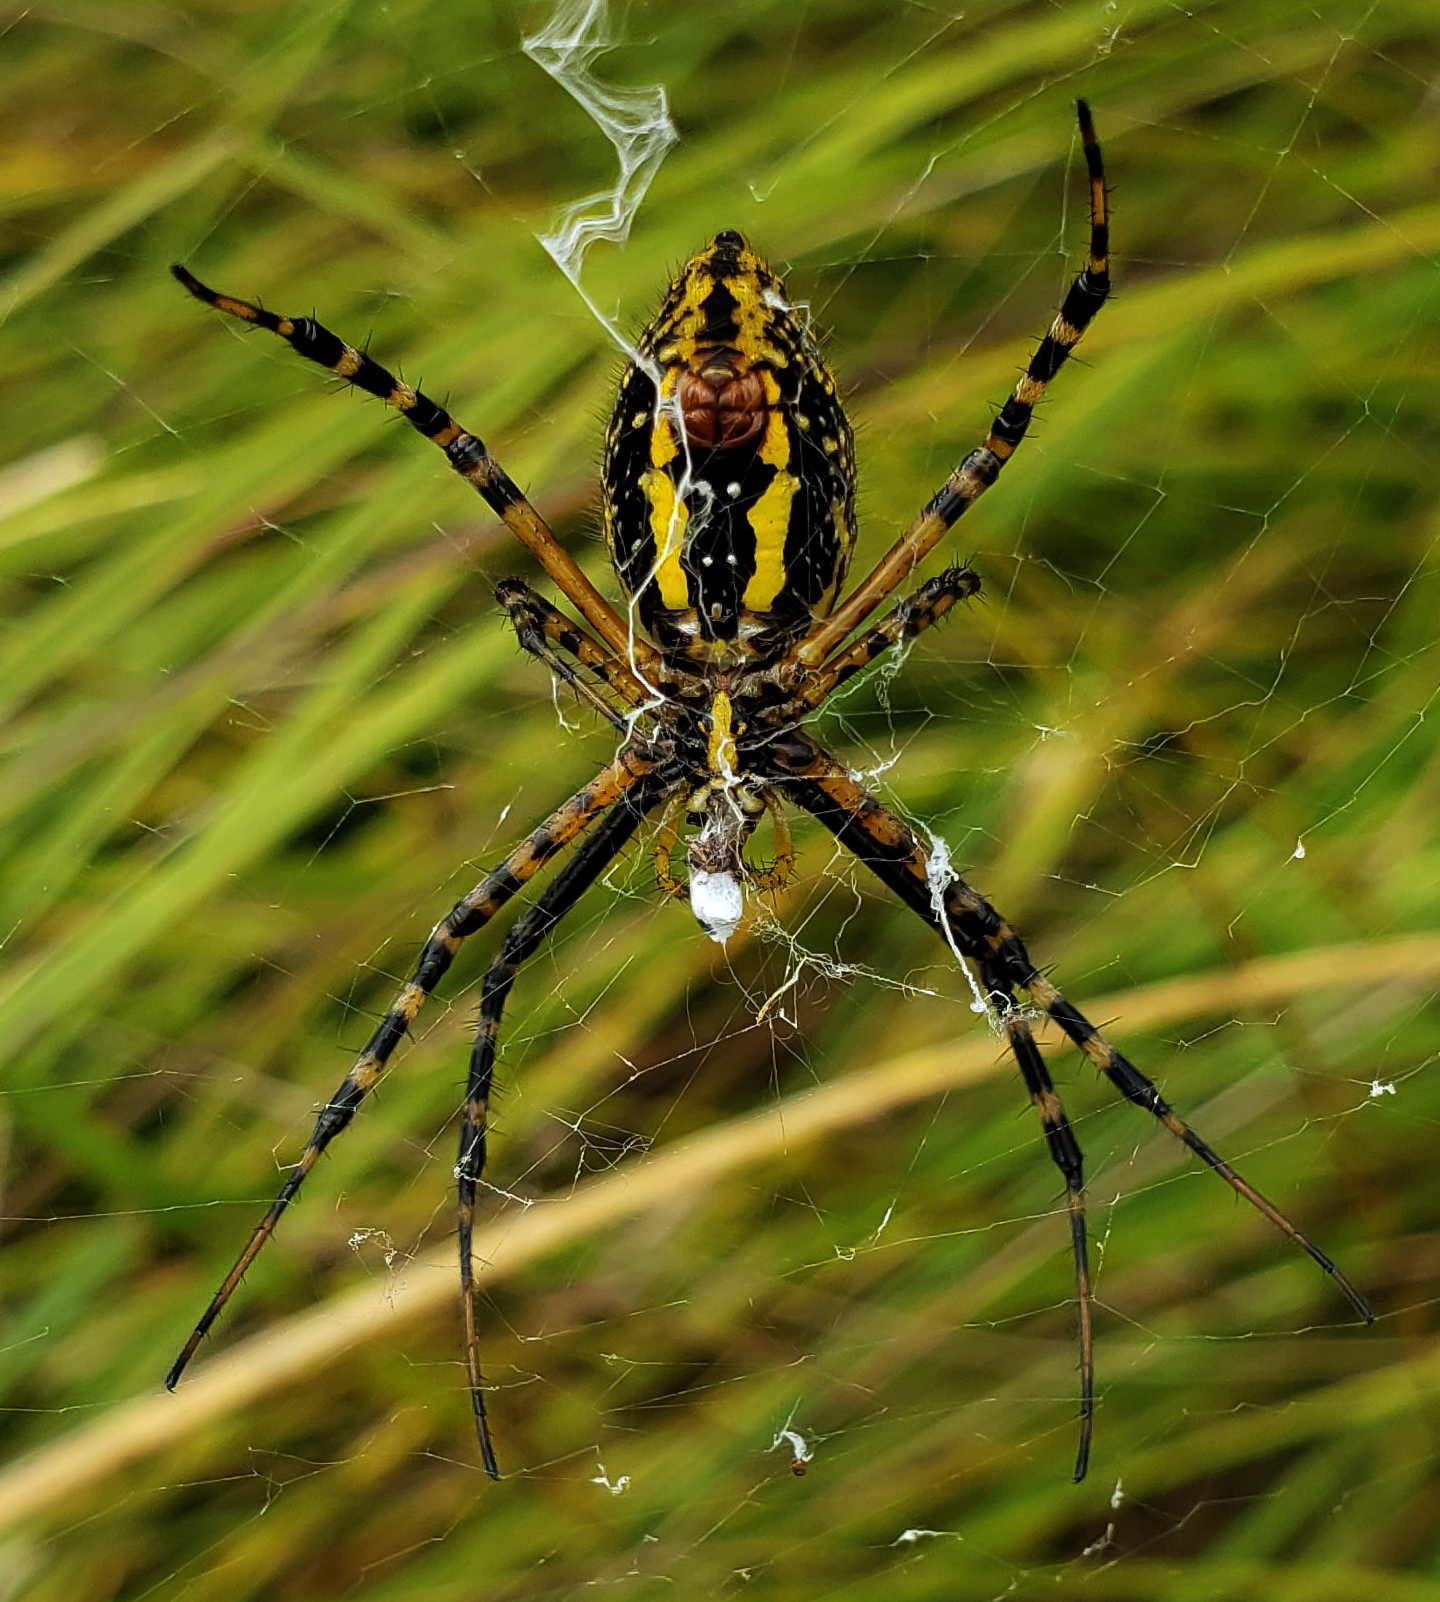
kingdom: Animalia
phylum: Arthropoda
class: Arachnida
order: Araneae
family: Araneidae
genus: Argiope
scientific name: Argiope trifasciata
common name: Banded garden spider
